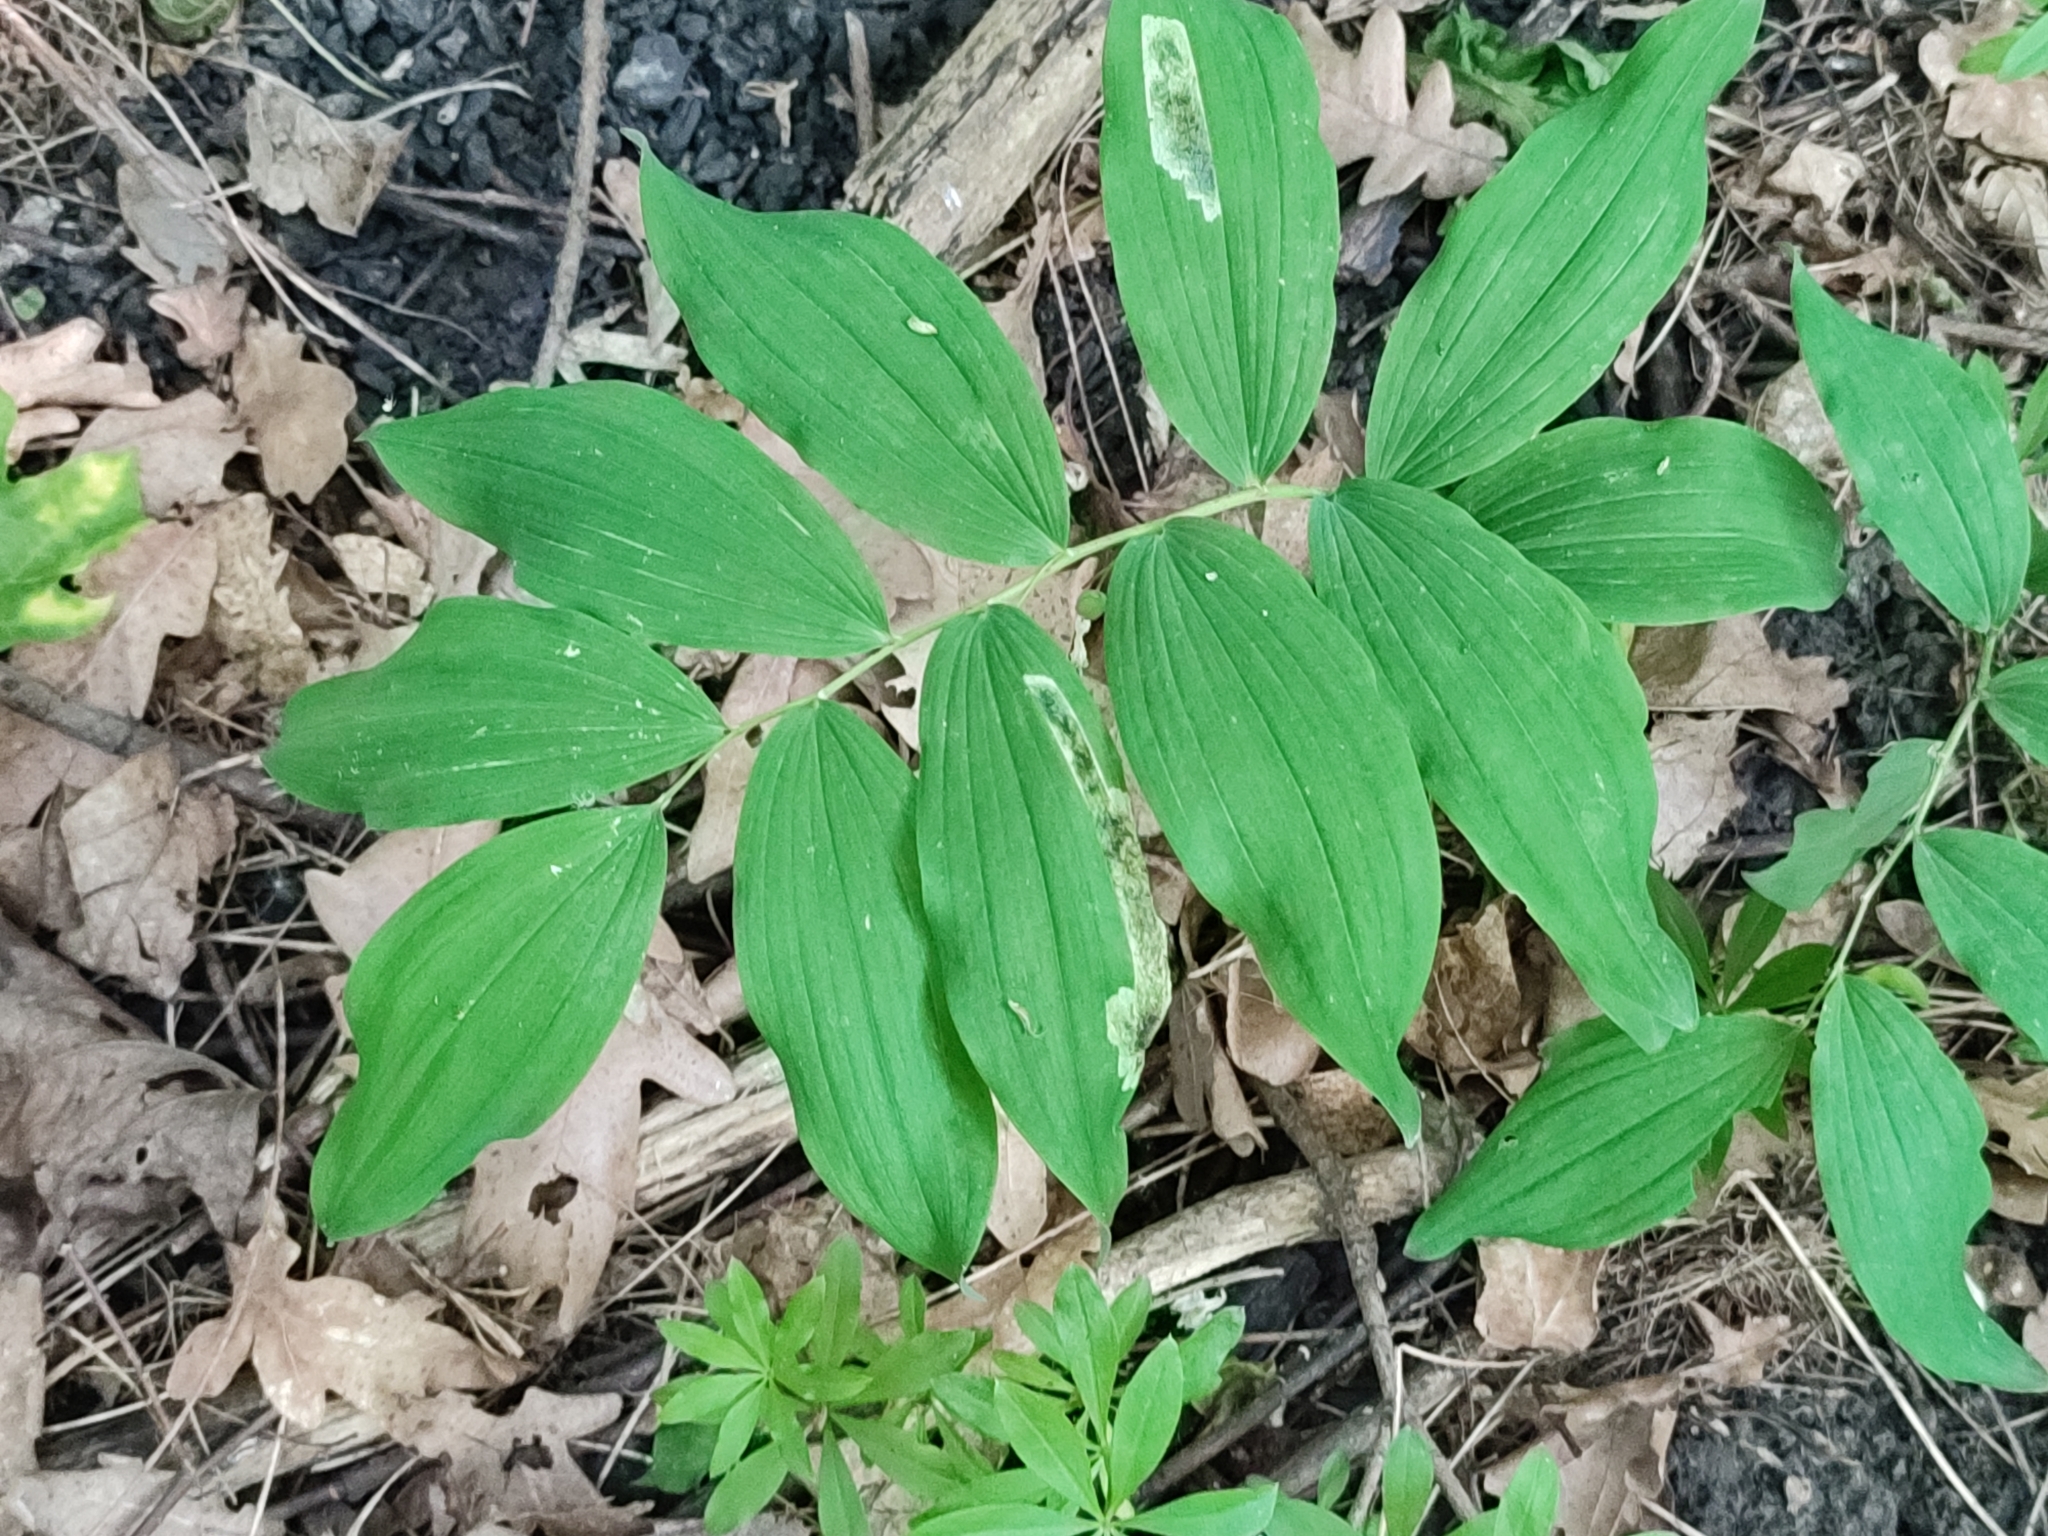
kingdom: Plantae
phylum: Tracheophyta
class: Liliopsida
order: Asparagales
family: Asparagaceae
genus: Polygonatum
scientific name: Polygonatum multiflorum
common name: Solomon's-seal
